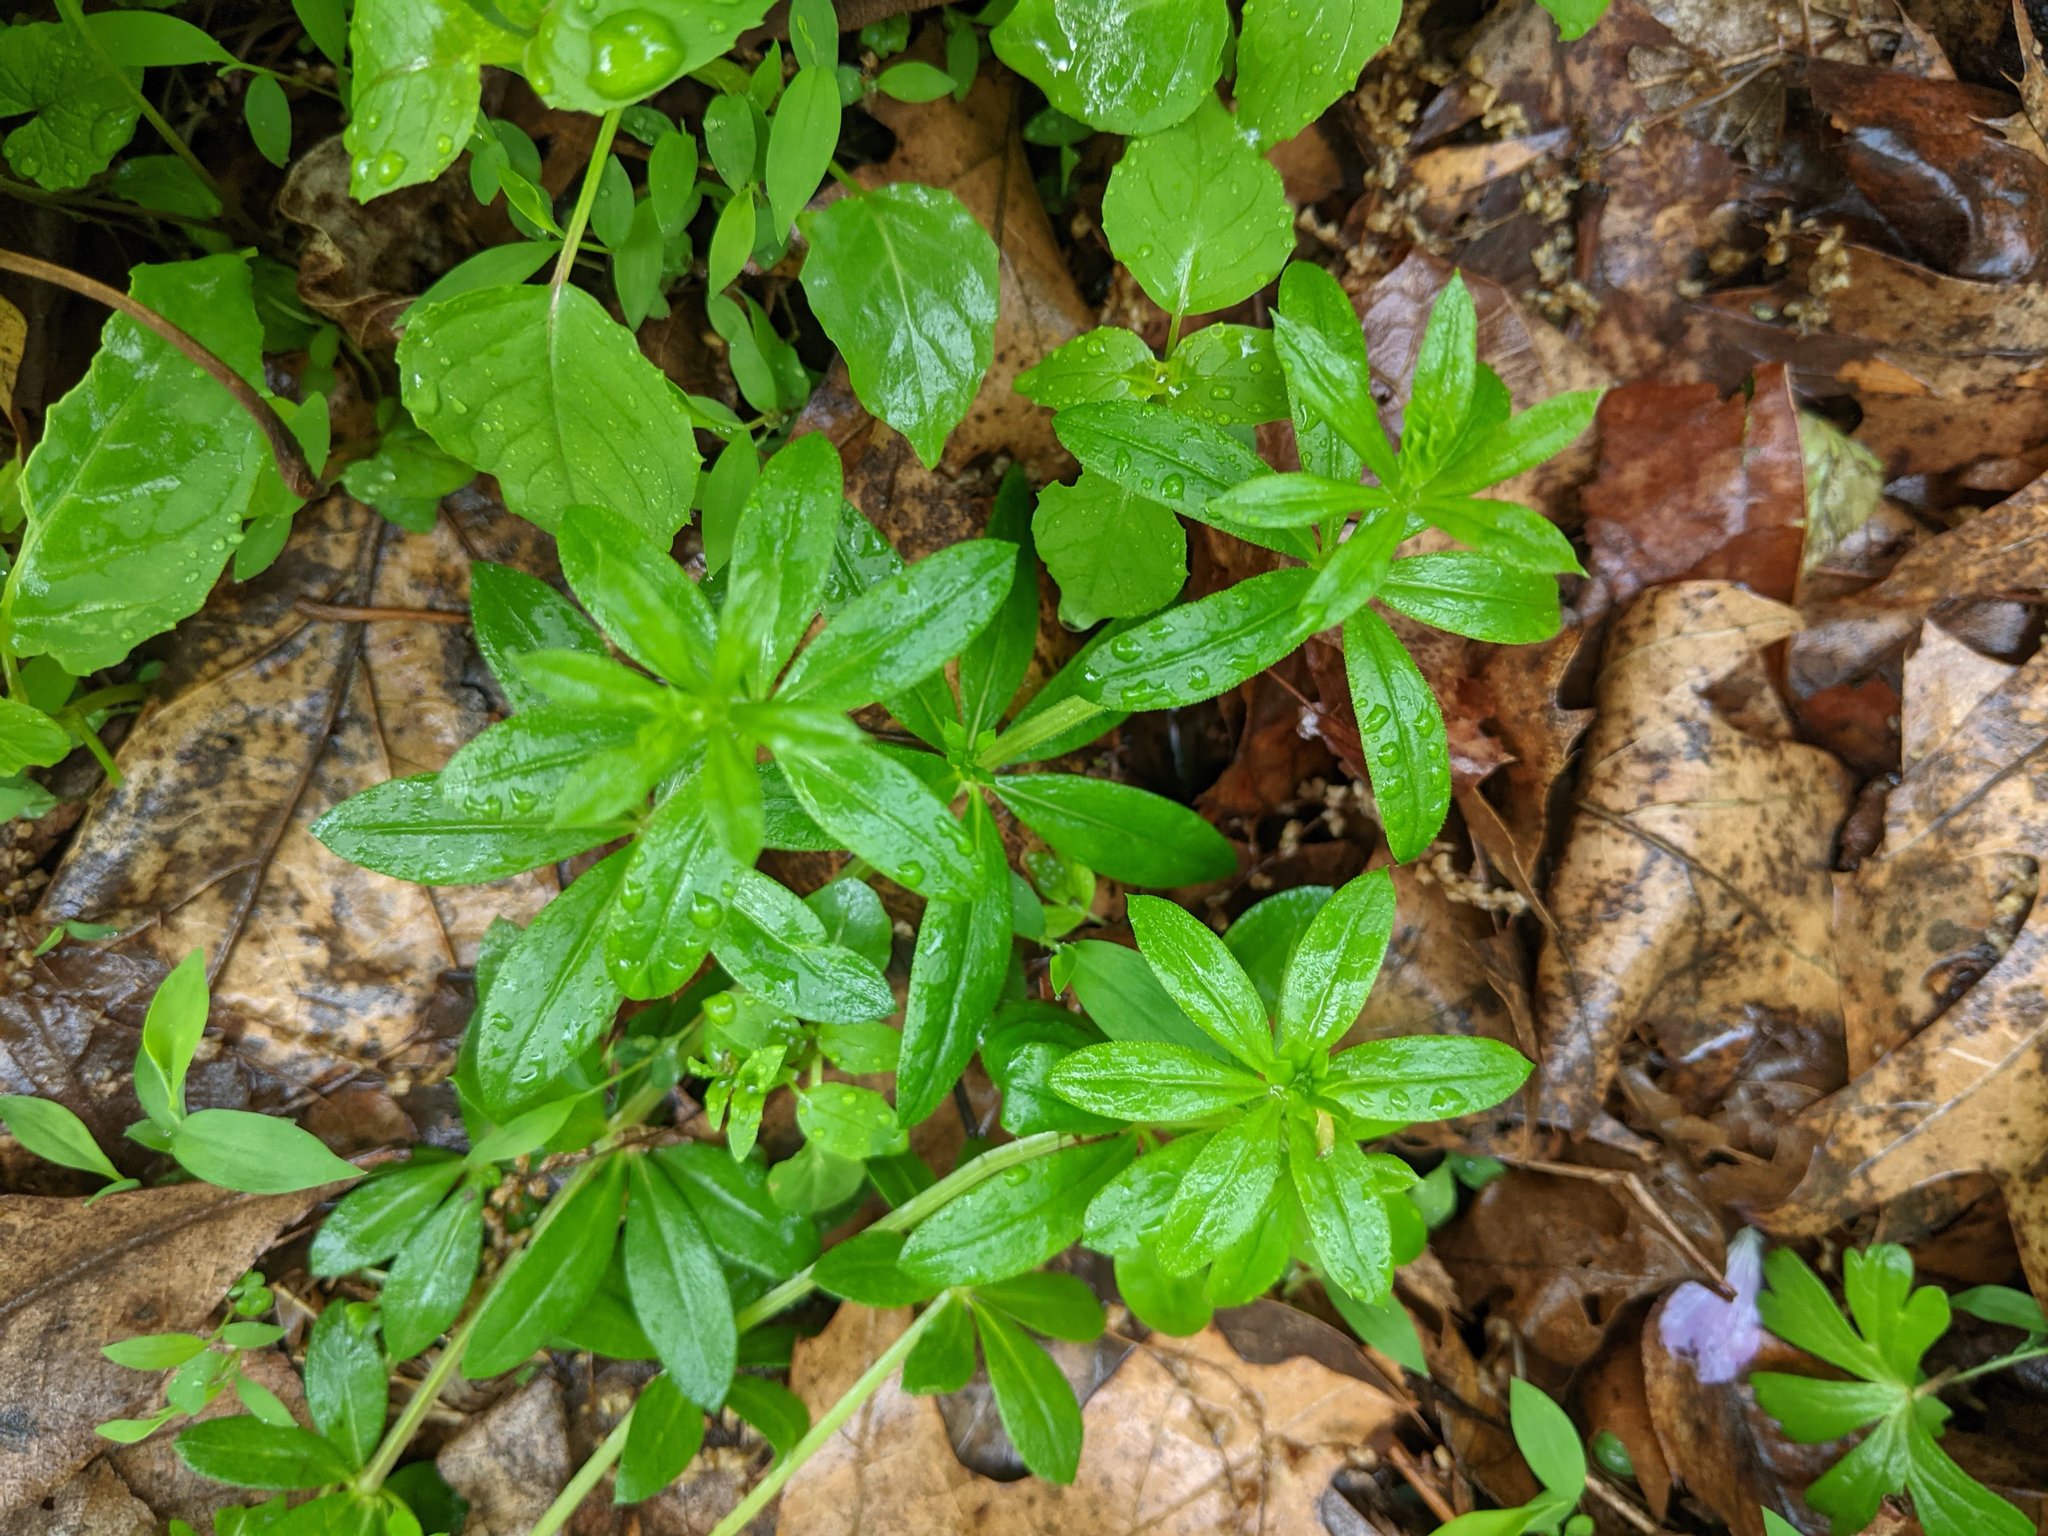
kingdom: Plantae
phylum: Tracheophyta
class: Magnoliopsida
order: Gentianales
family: Rubiaceae
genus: Galium
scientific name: Galium triflorum
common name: Fragrant bedstraw
